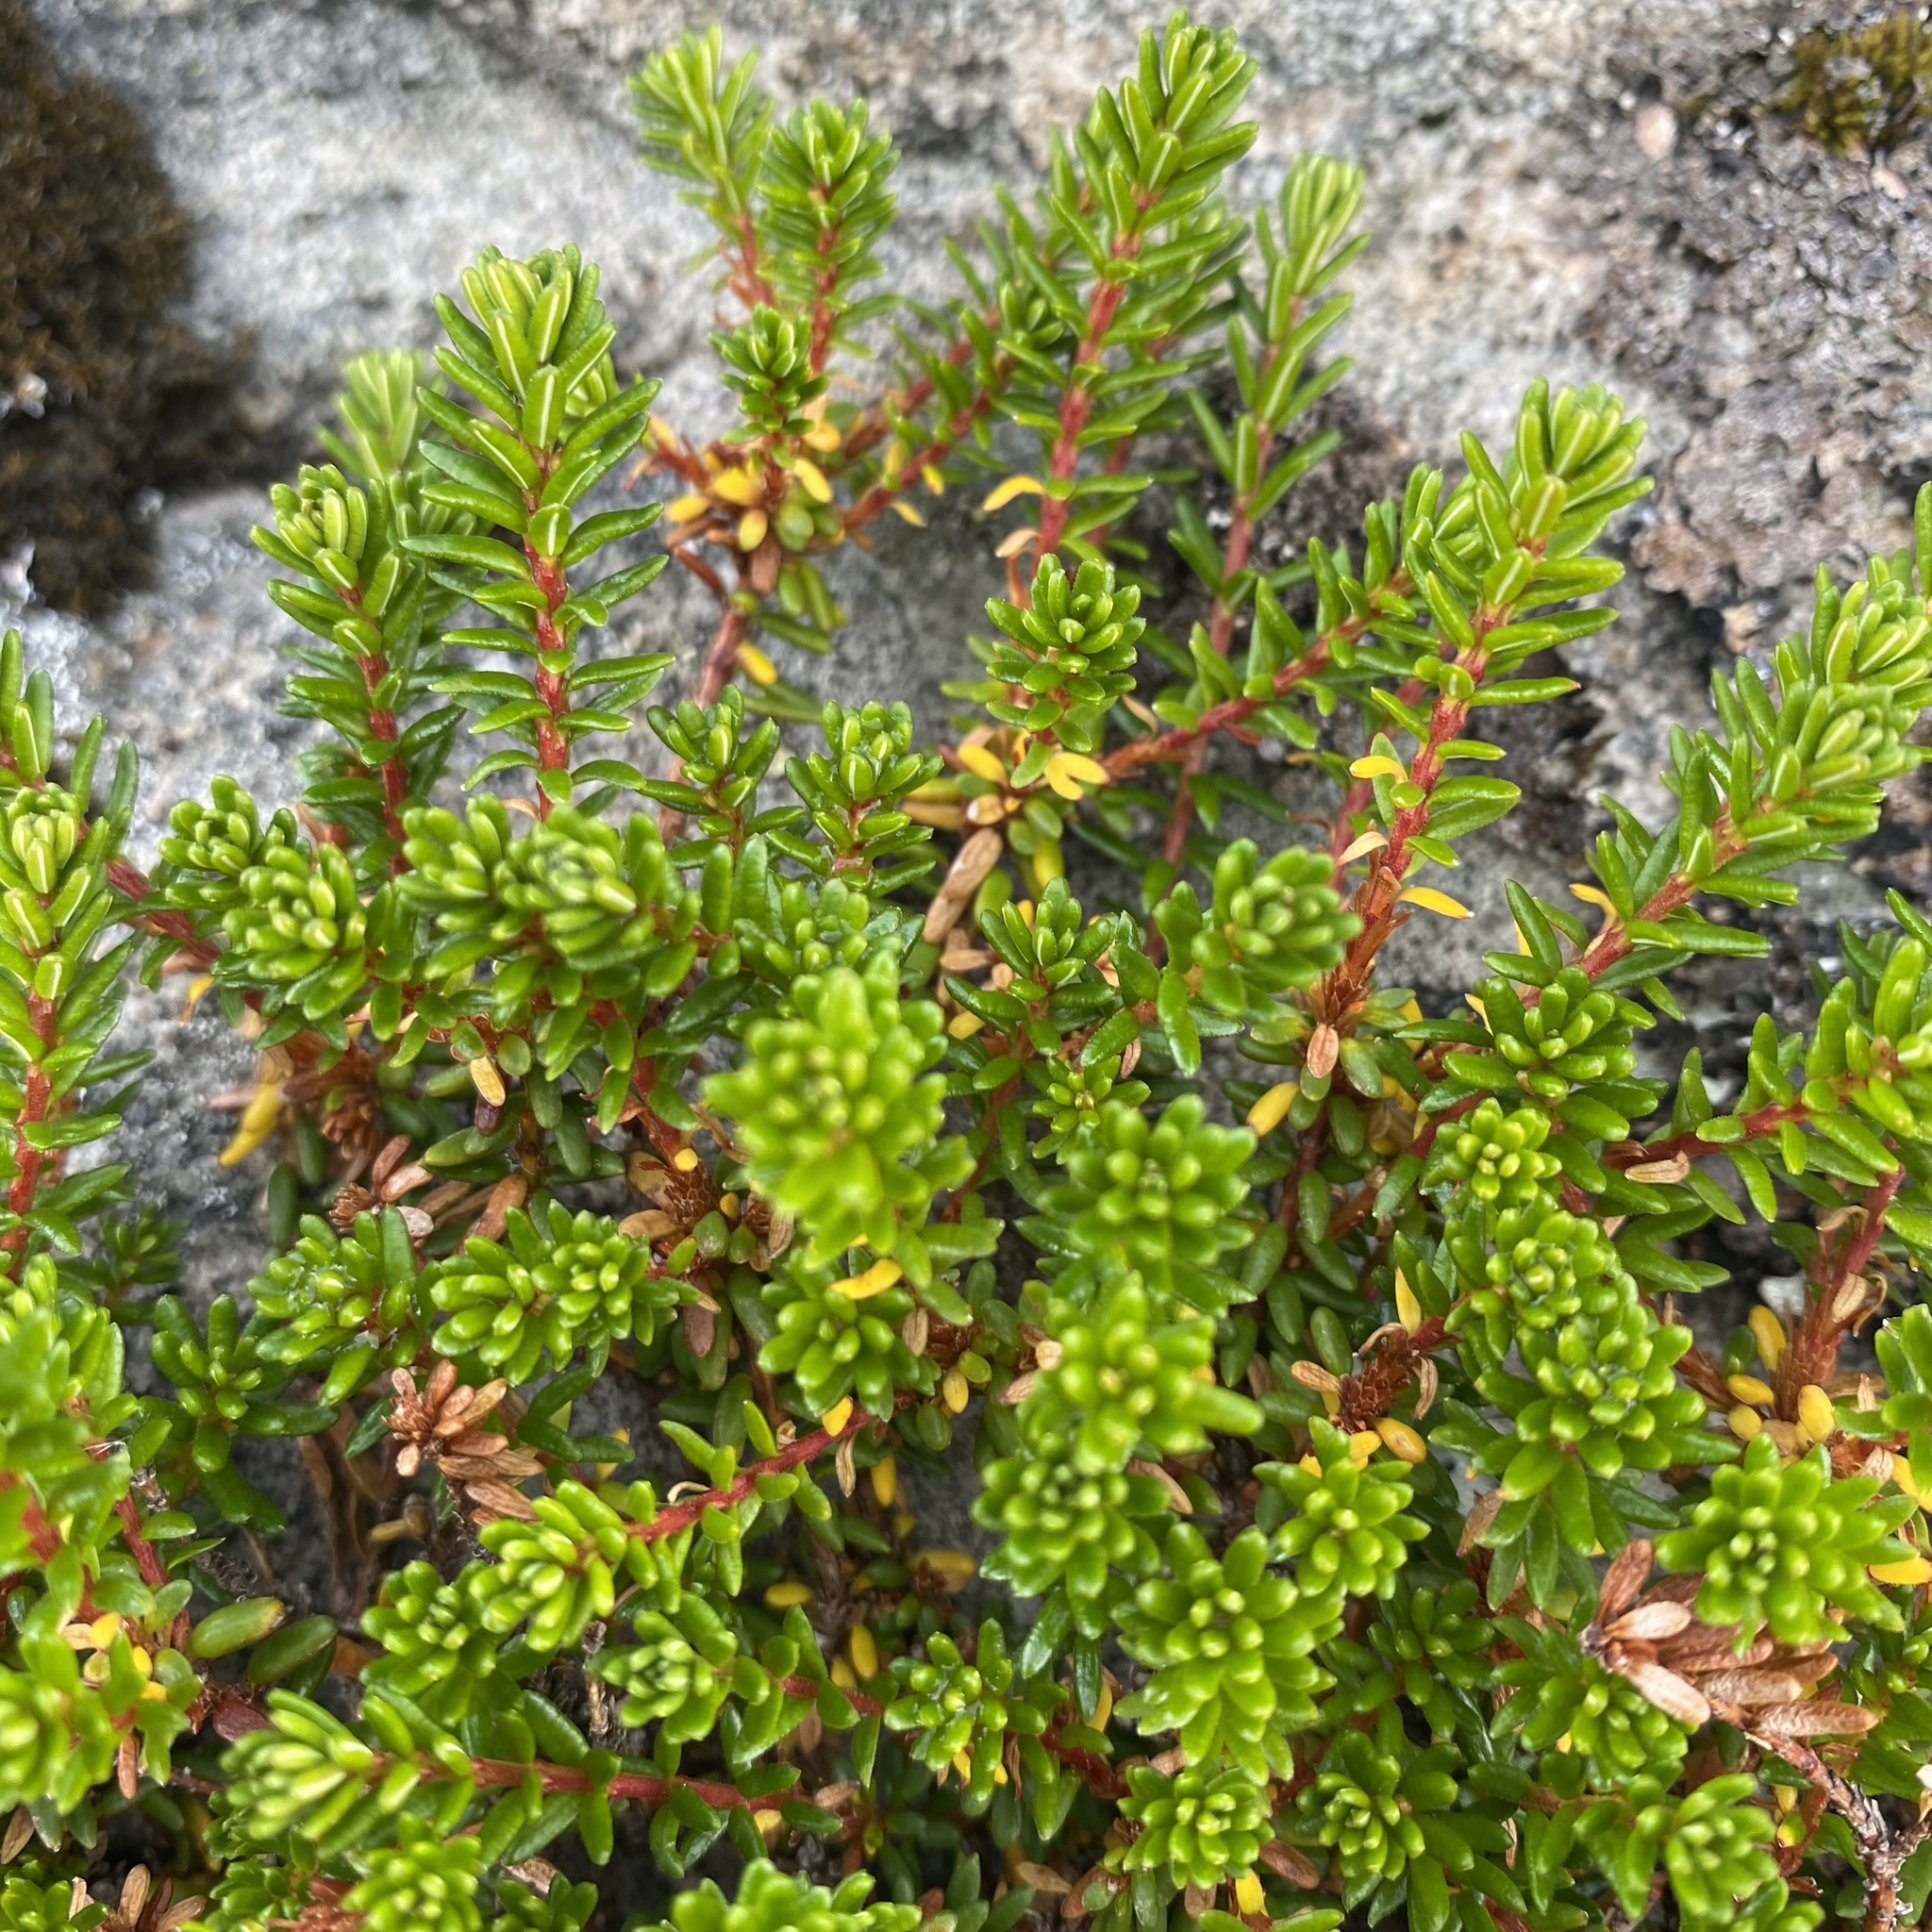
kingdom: Plantae
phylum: Tracheophyta
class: Magnoliopsida
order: Ericales
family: Ericaceae
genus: Empetrum
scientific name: Empetrum nigrum
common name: Black crowberry
